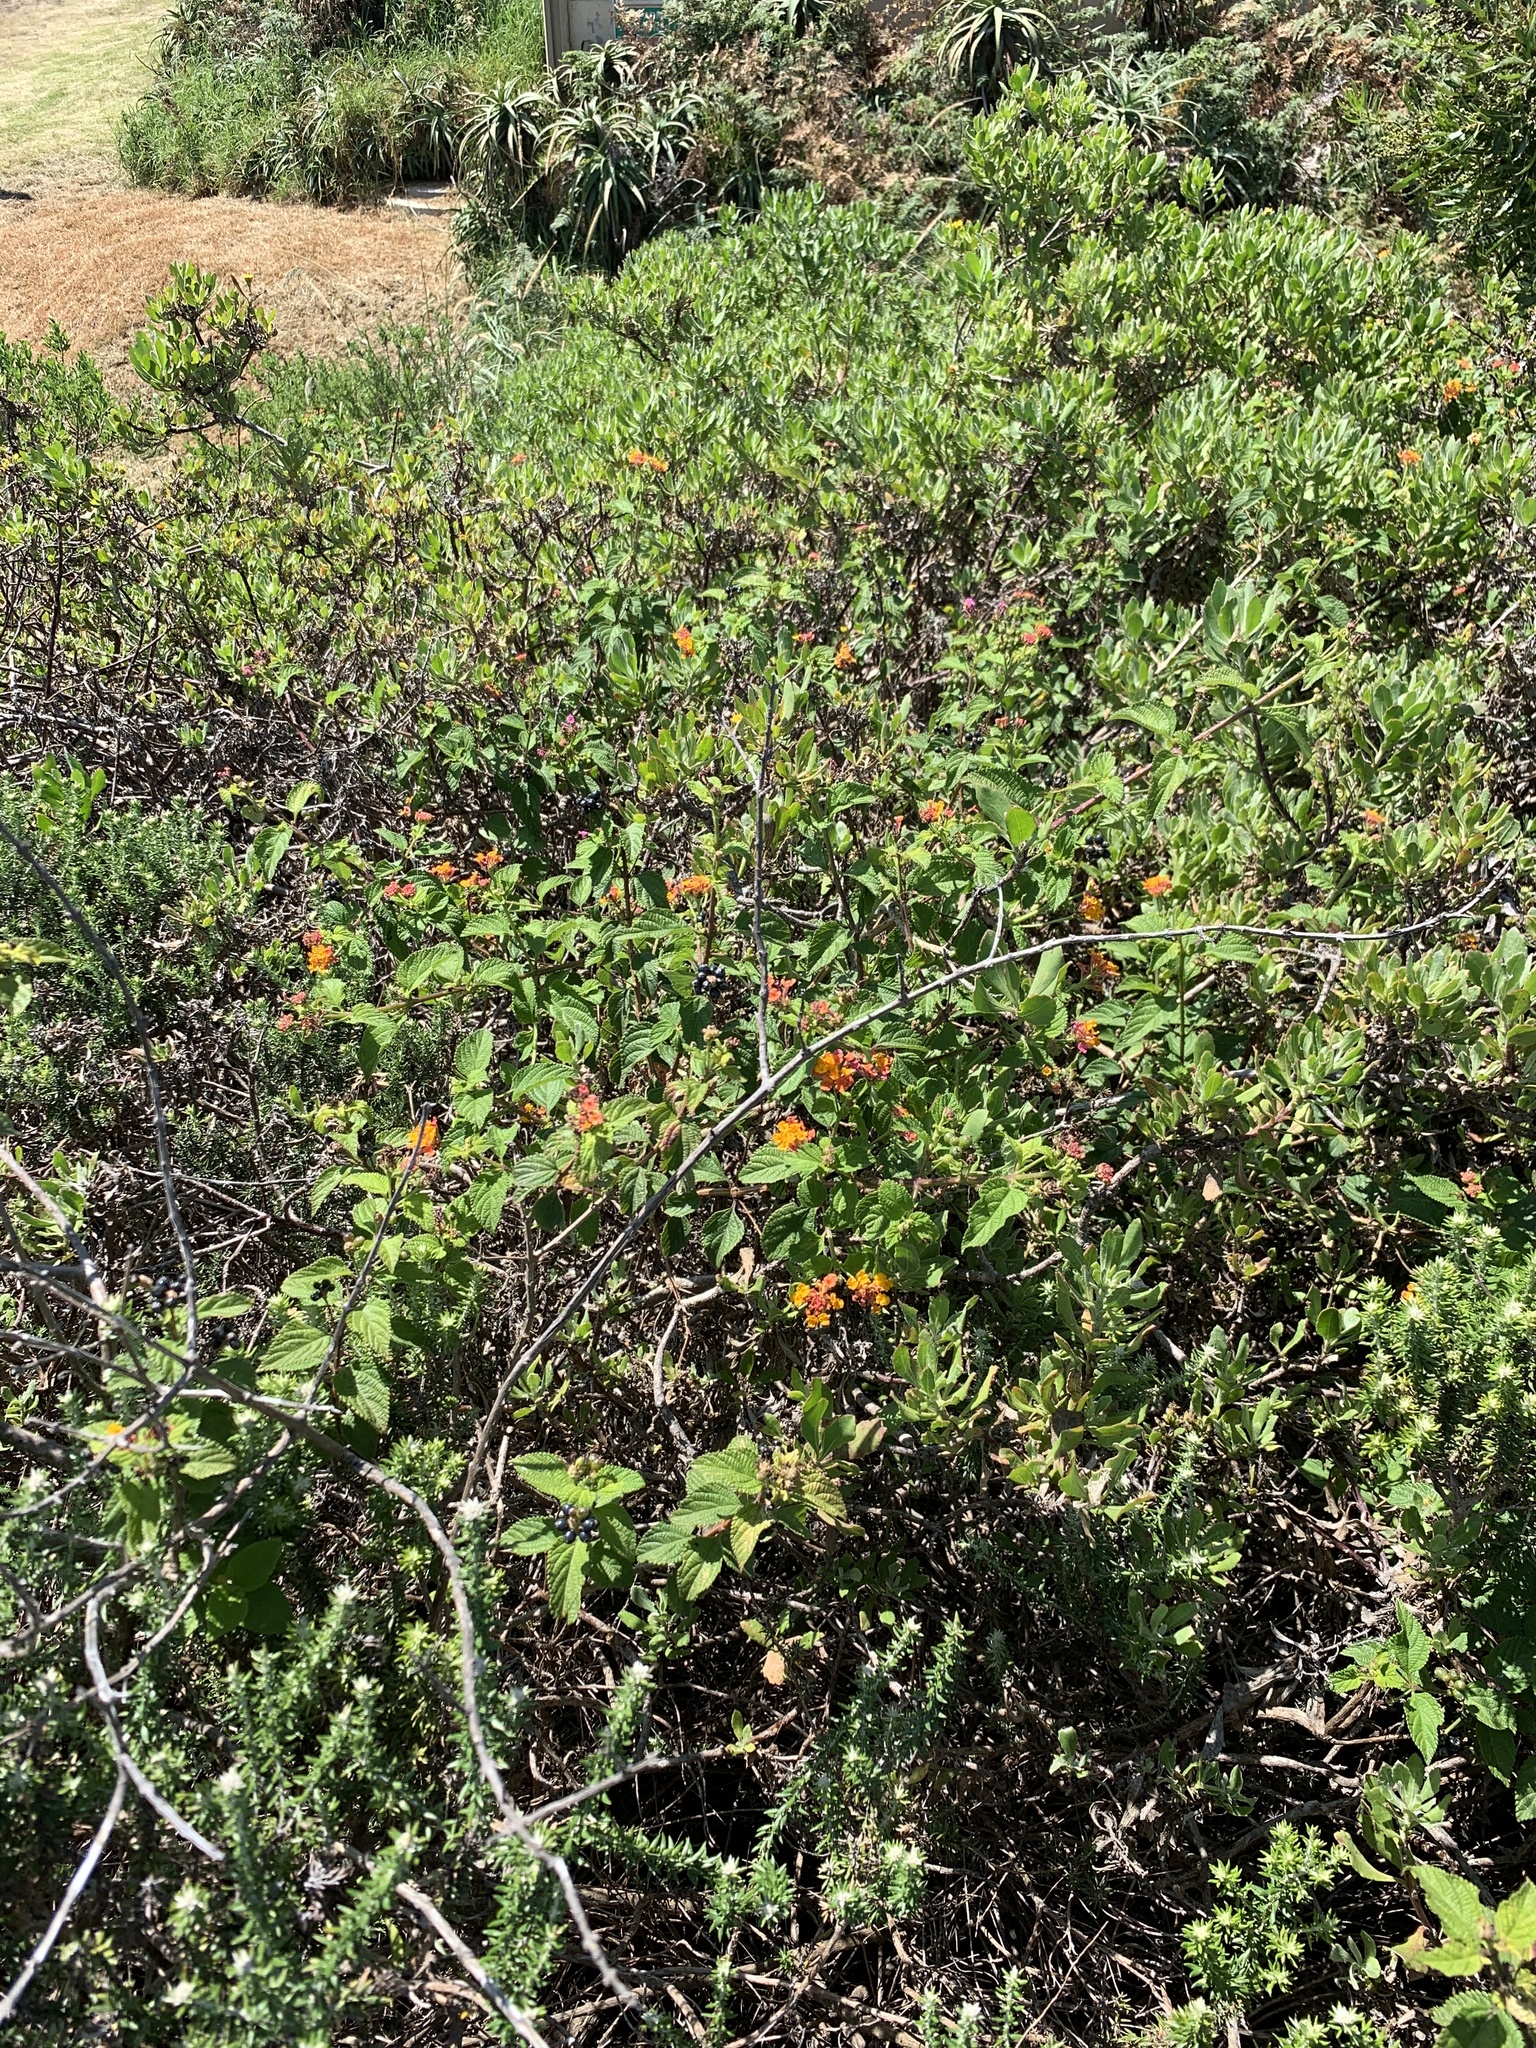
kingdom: Plantae
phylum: Tracheophyta
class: Magnoliopsida
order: Lamiales
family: Verbenaceae
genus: Lantana
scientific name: Lantana camara
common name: Lantana
